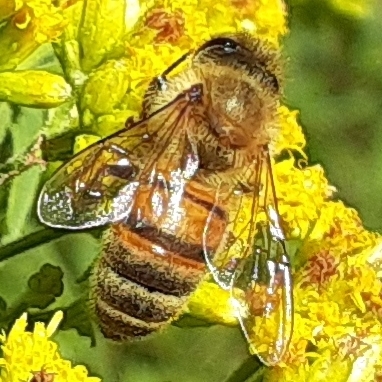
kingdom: Animalia
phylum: Arthropoda
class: Insecta
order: Hymenoptera
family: Apidae
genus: Apis
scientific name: Apis mellifera
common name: Honey bee
